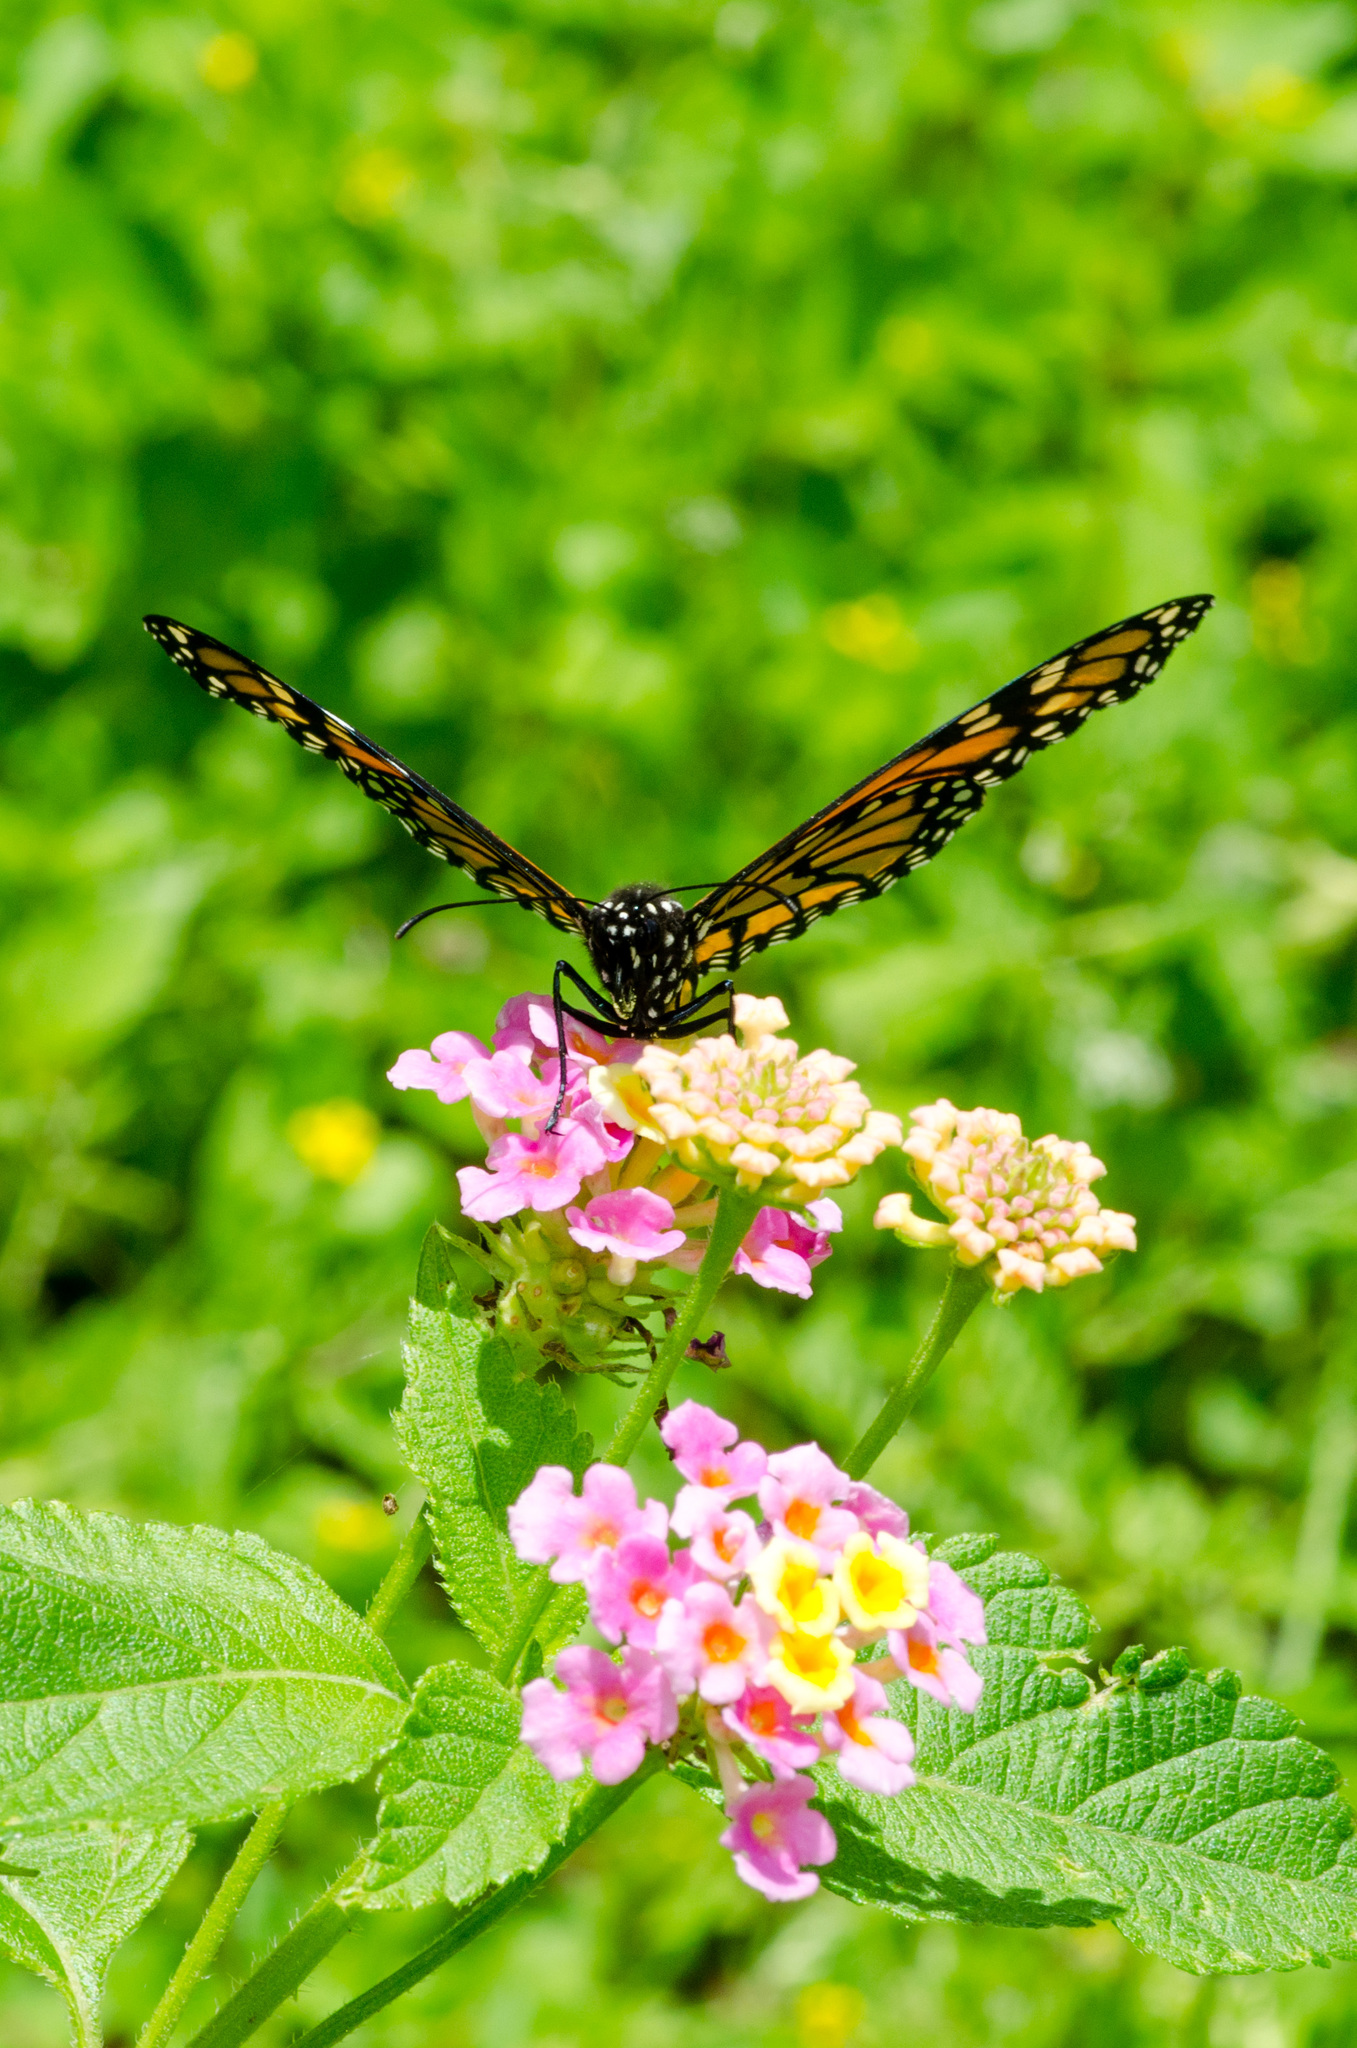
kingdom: Animalia
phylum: Arthropoda
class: Insecta
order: Lepidoptera
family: Nymphalidae
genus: Danaus
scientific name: Danaus plexippus
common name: Monarch
